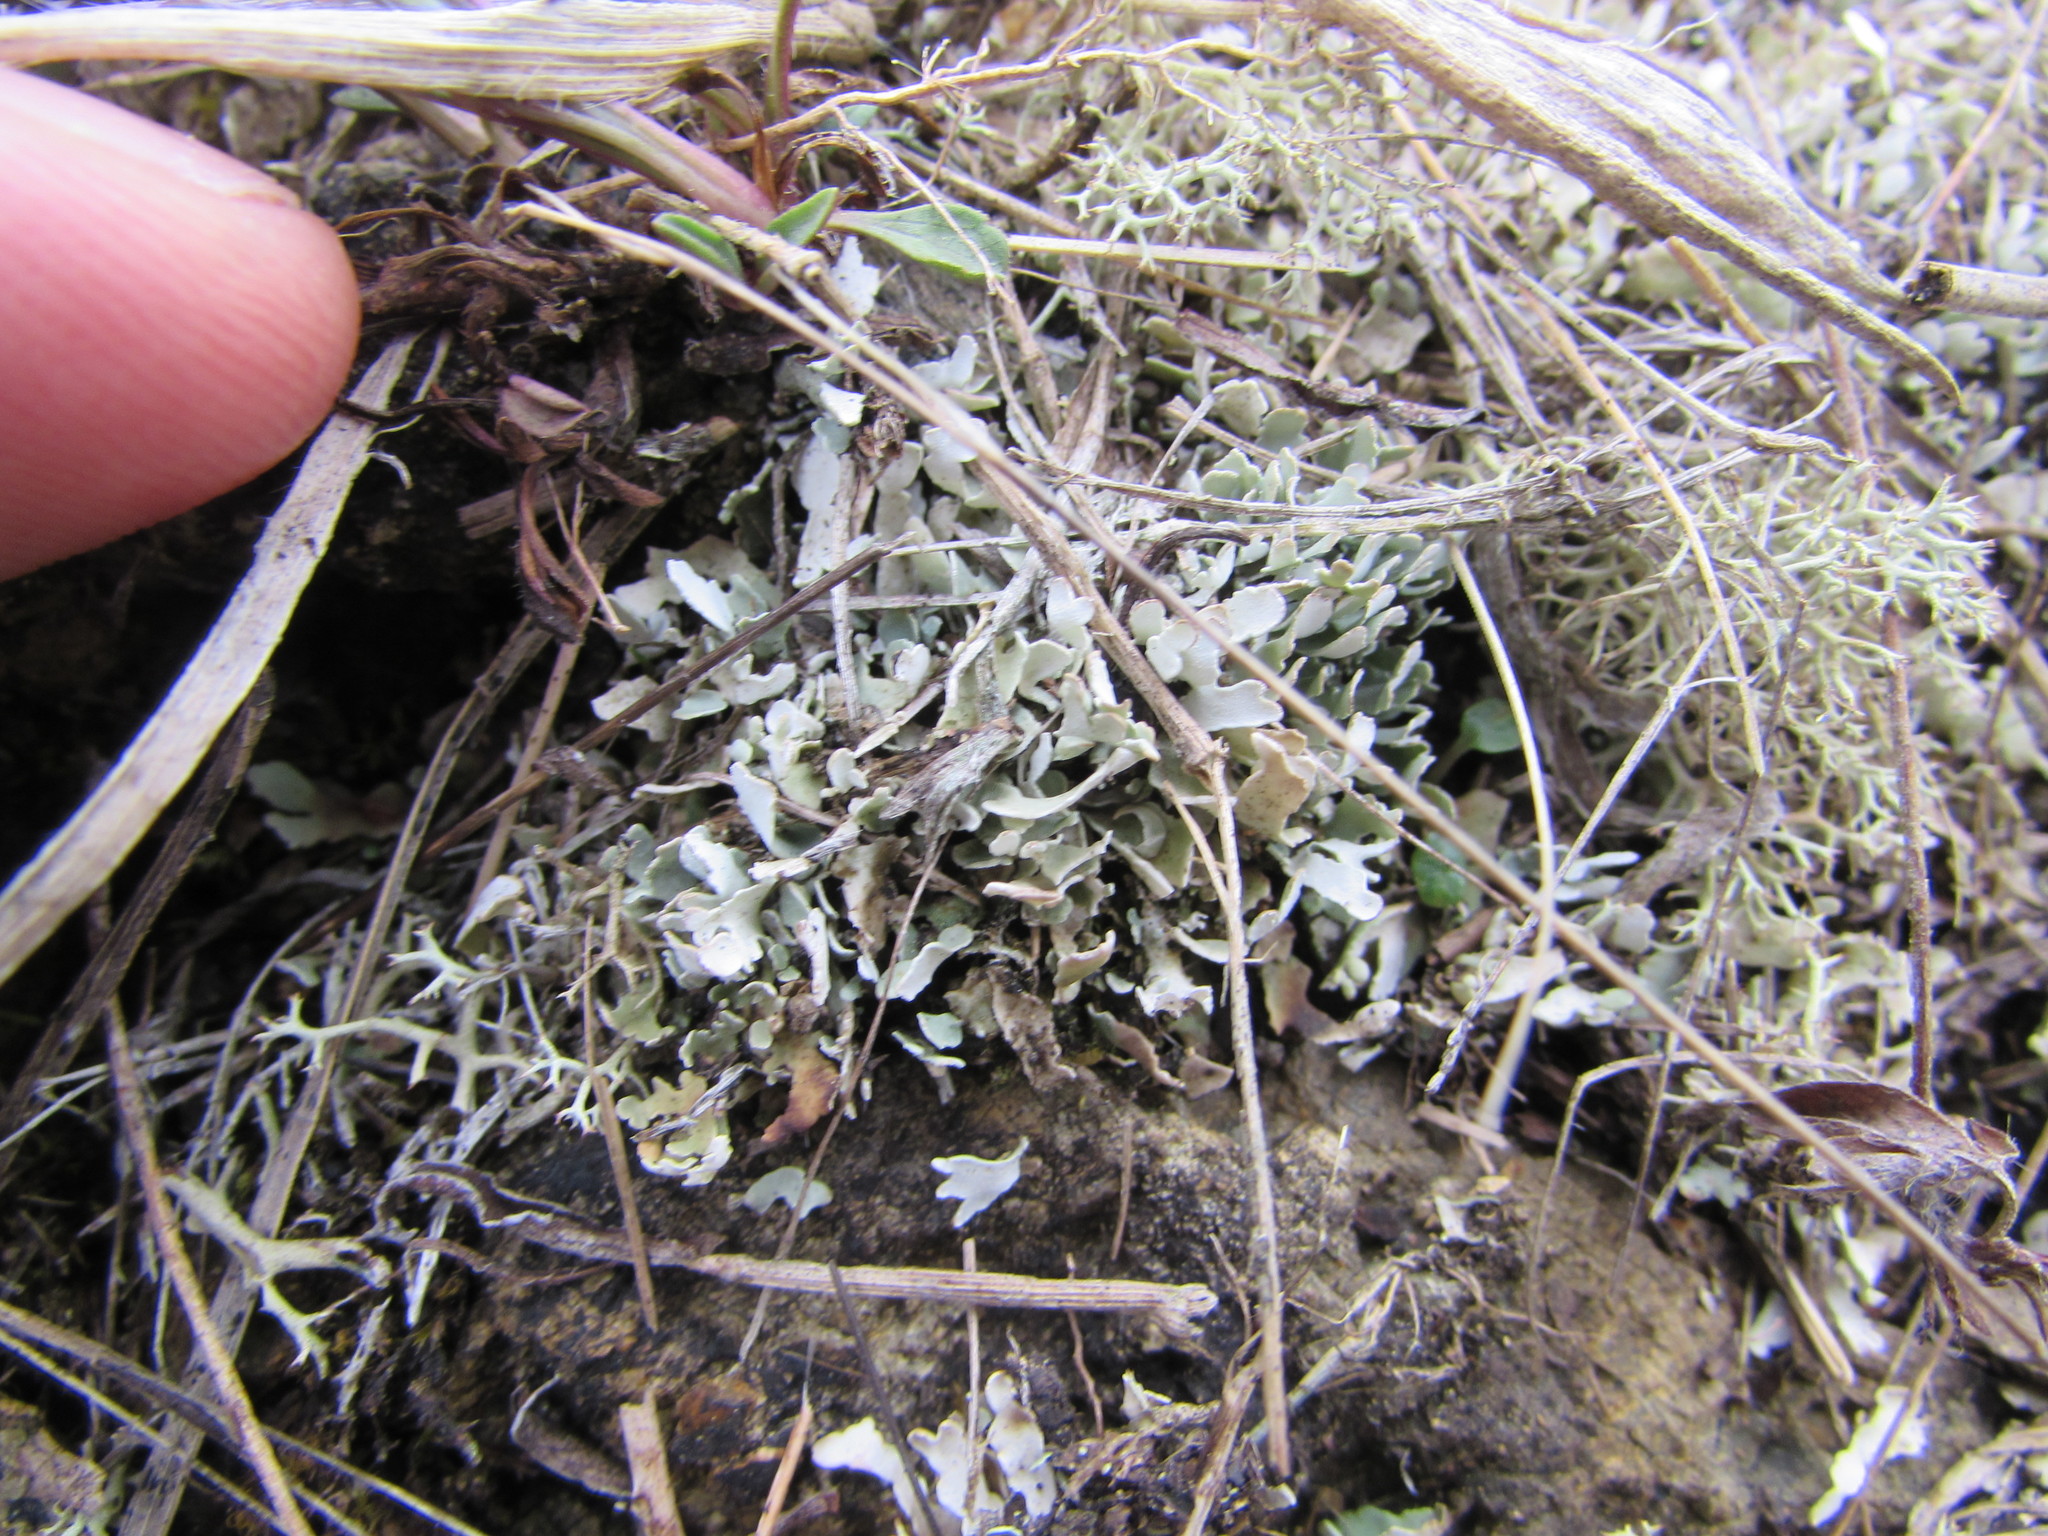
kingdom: Fungi
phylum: Ascomycota
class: Lecanoromycetes
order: Lecanorales
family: Cladoniaceae
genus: Cladonia
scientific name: Cladonia apodocarpa
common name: Stalkless cladonia
